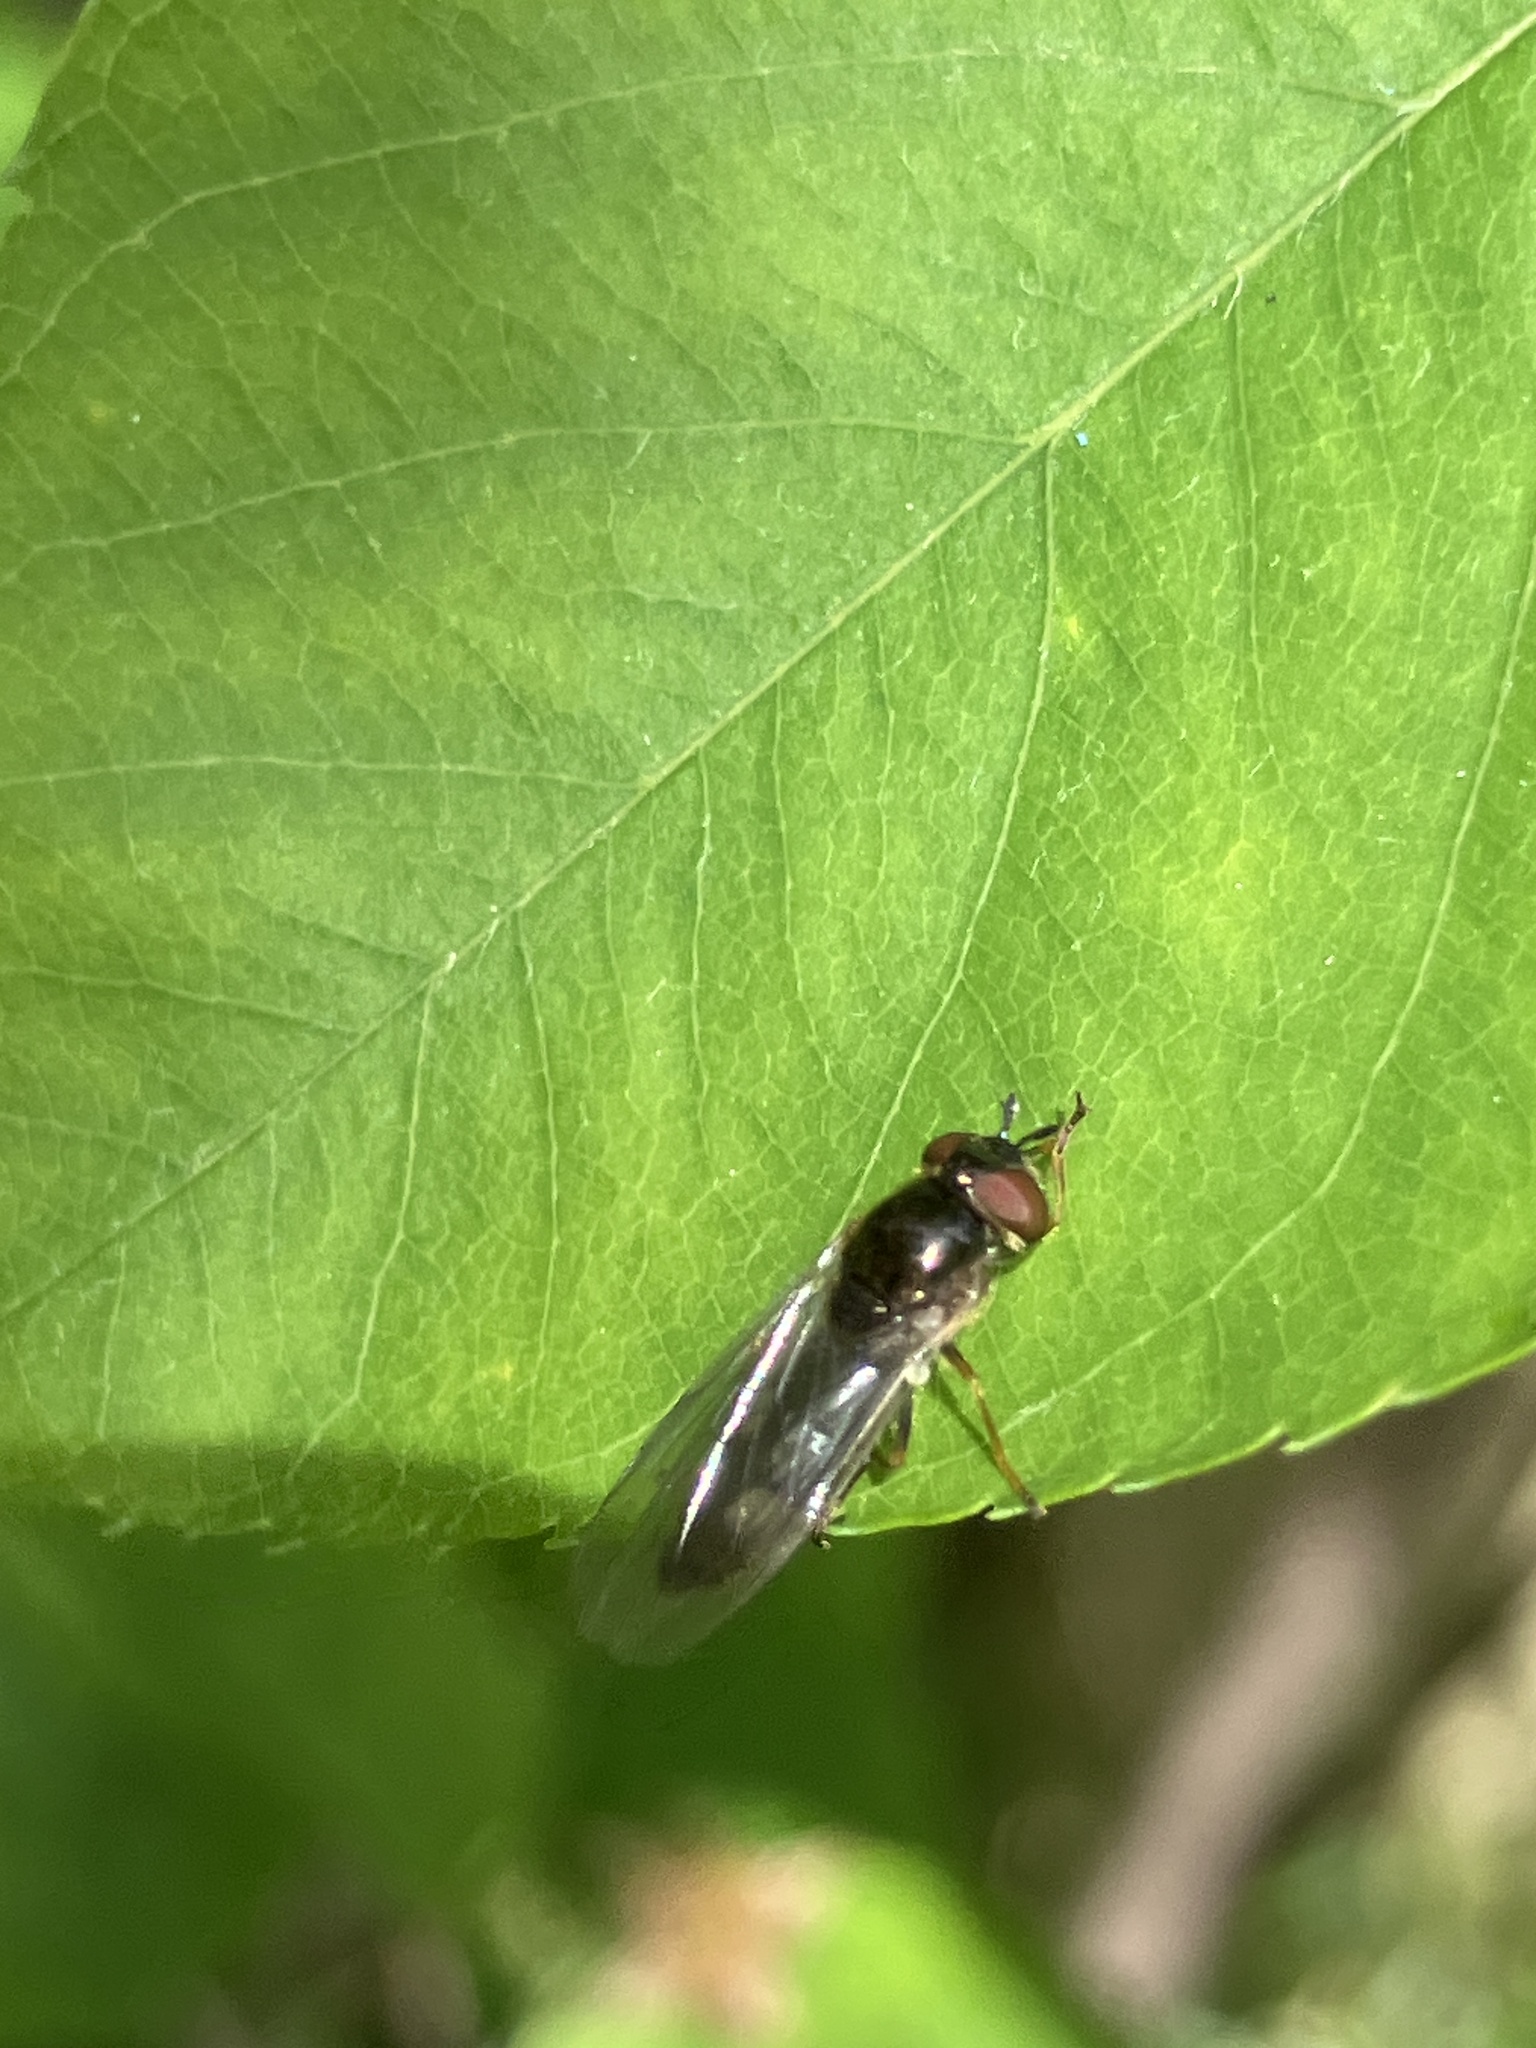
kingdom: Animalia
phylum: Arthropoda
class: Insecta
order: Diptera
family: Syrphidae
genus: Platycheirus
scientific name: Platycheirus albimanus
